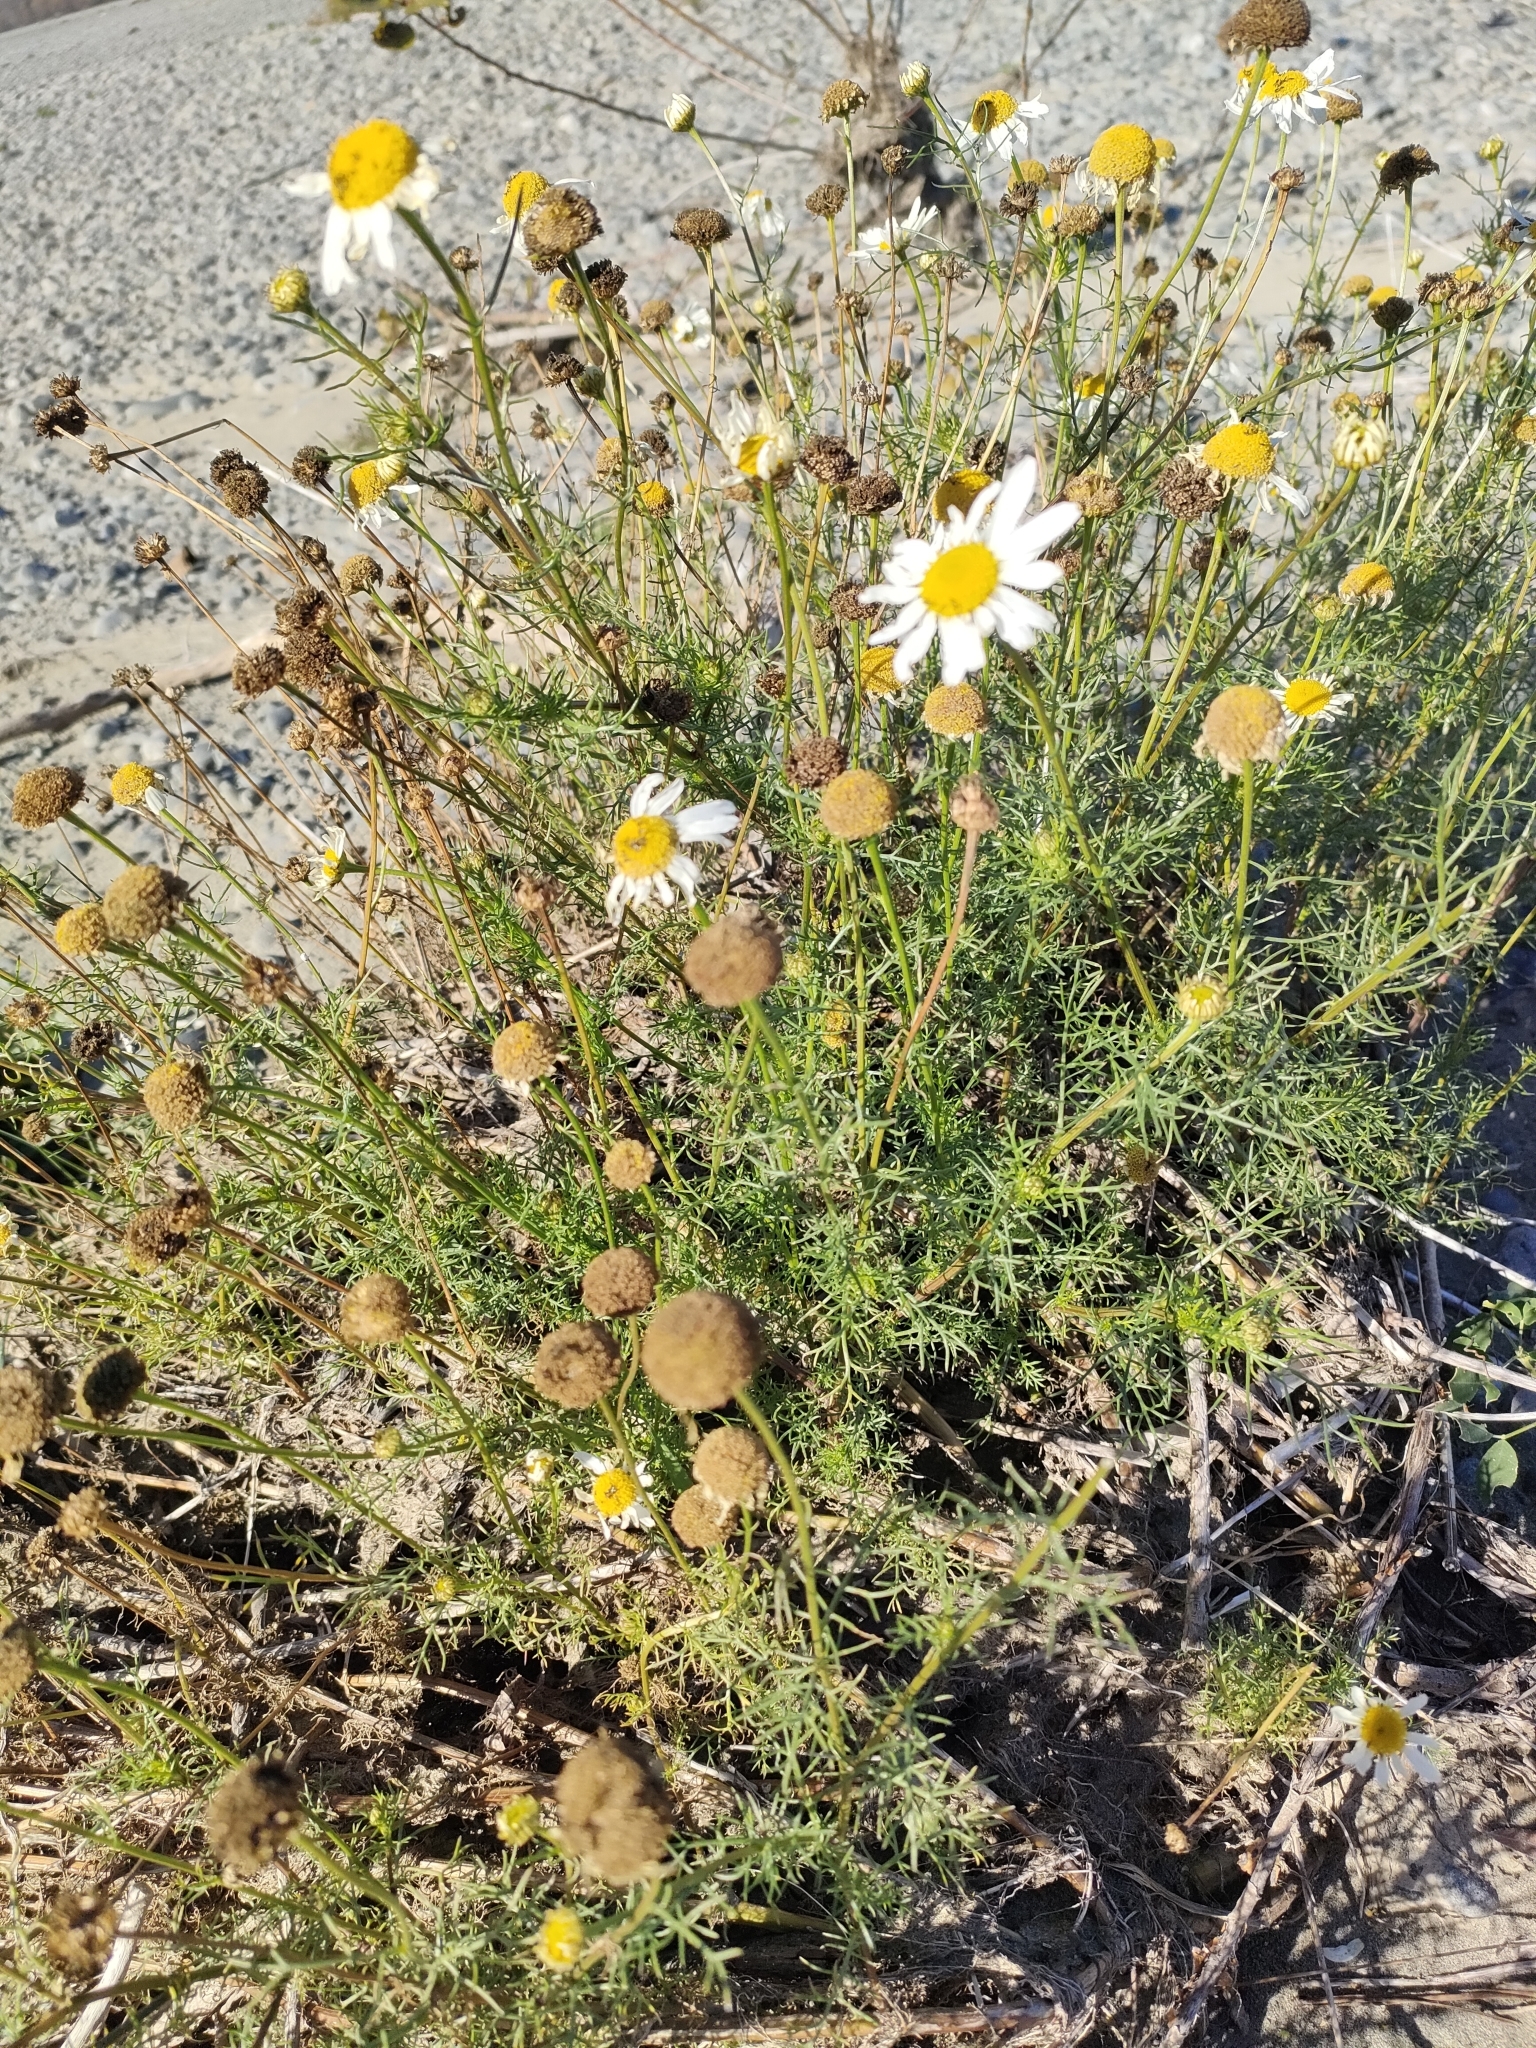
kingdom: Plantae
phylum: Tracheophyta
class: Magnoliopsida
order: Asterales
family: Asteraceae
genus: Tripleurospermum
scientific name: Tripleurospermum inodorum
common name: Scentless mayweed
